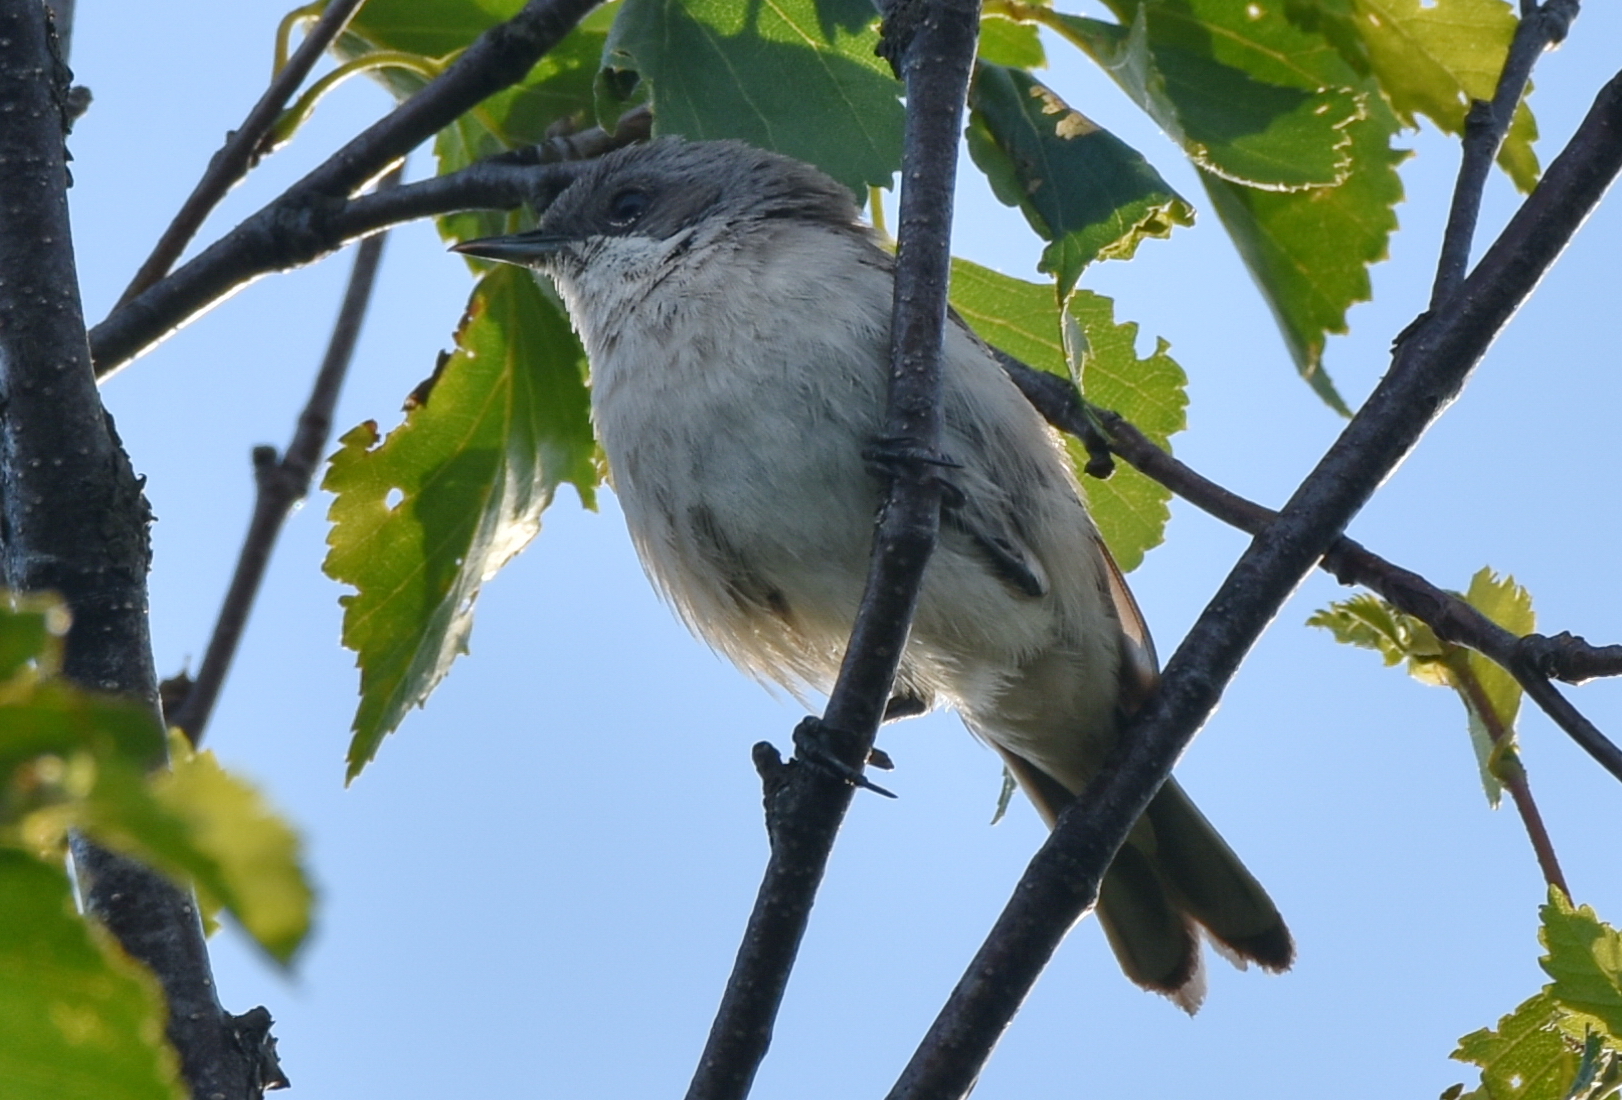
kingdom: Animalia
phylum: Chordata
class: Aves
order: Passeriformes
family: Sylviidae
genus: Sylvia
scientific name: Sylvia curruca
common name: Lesser whitethroat
